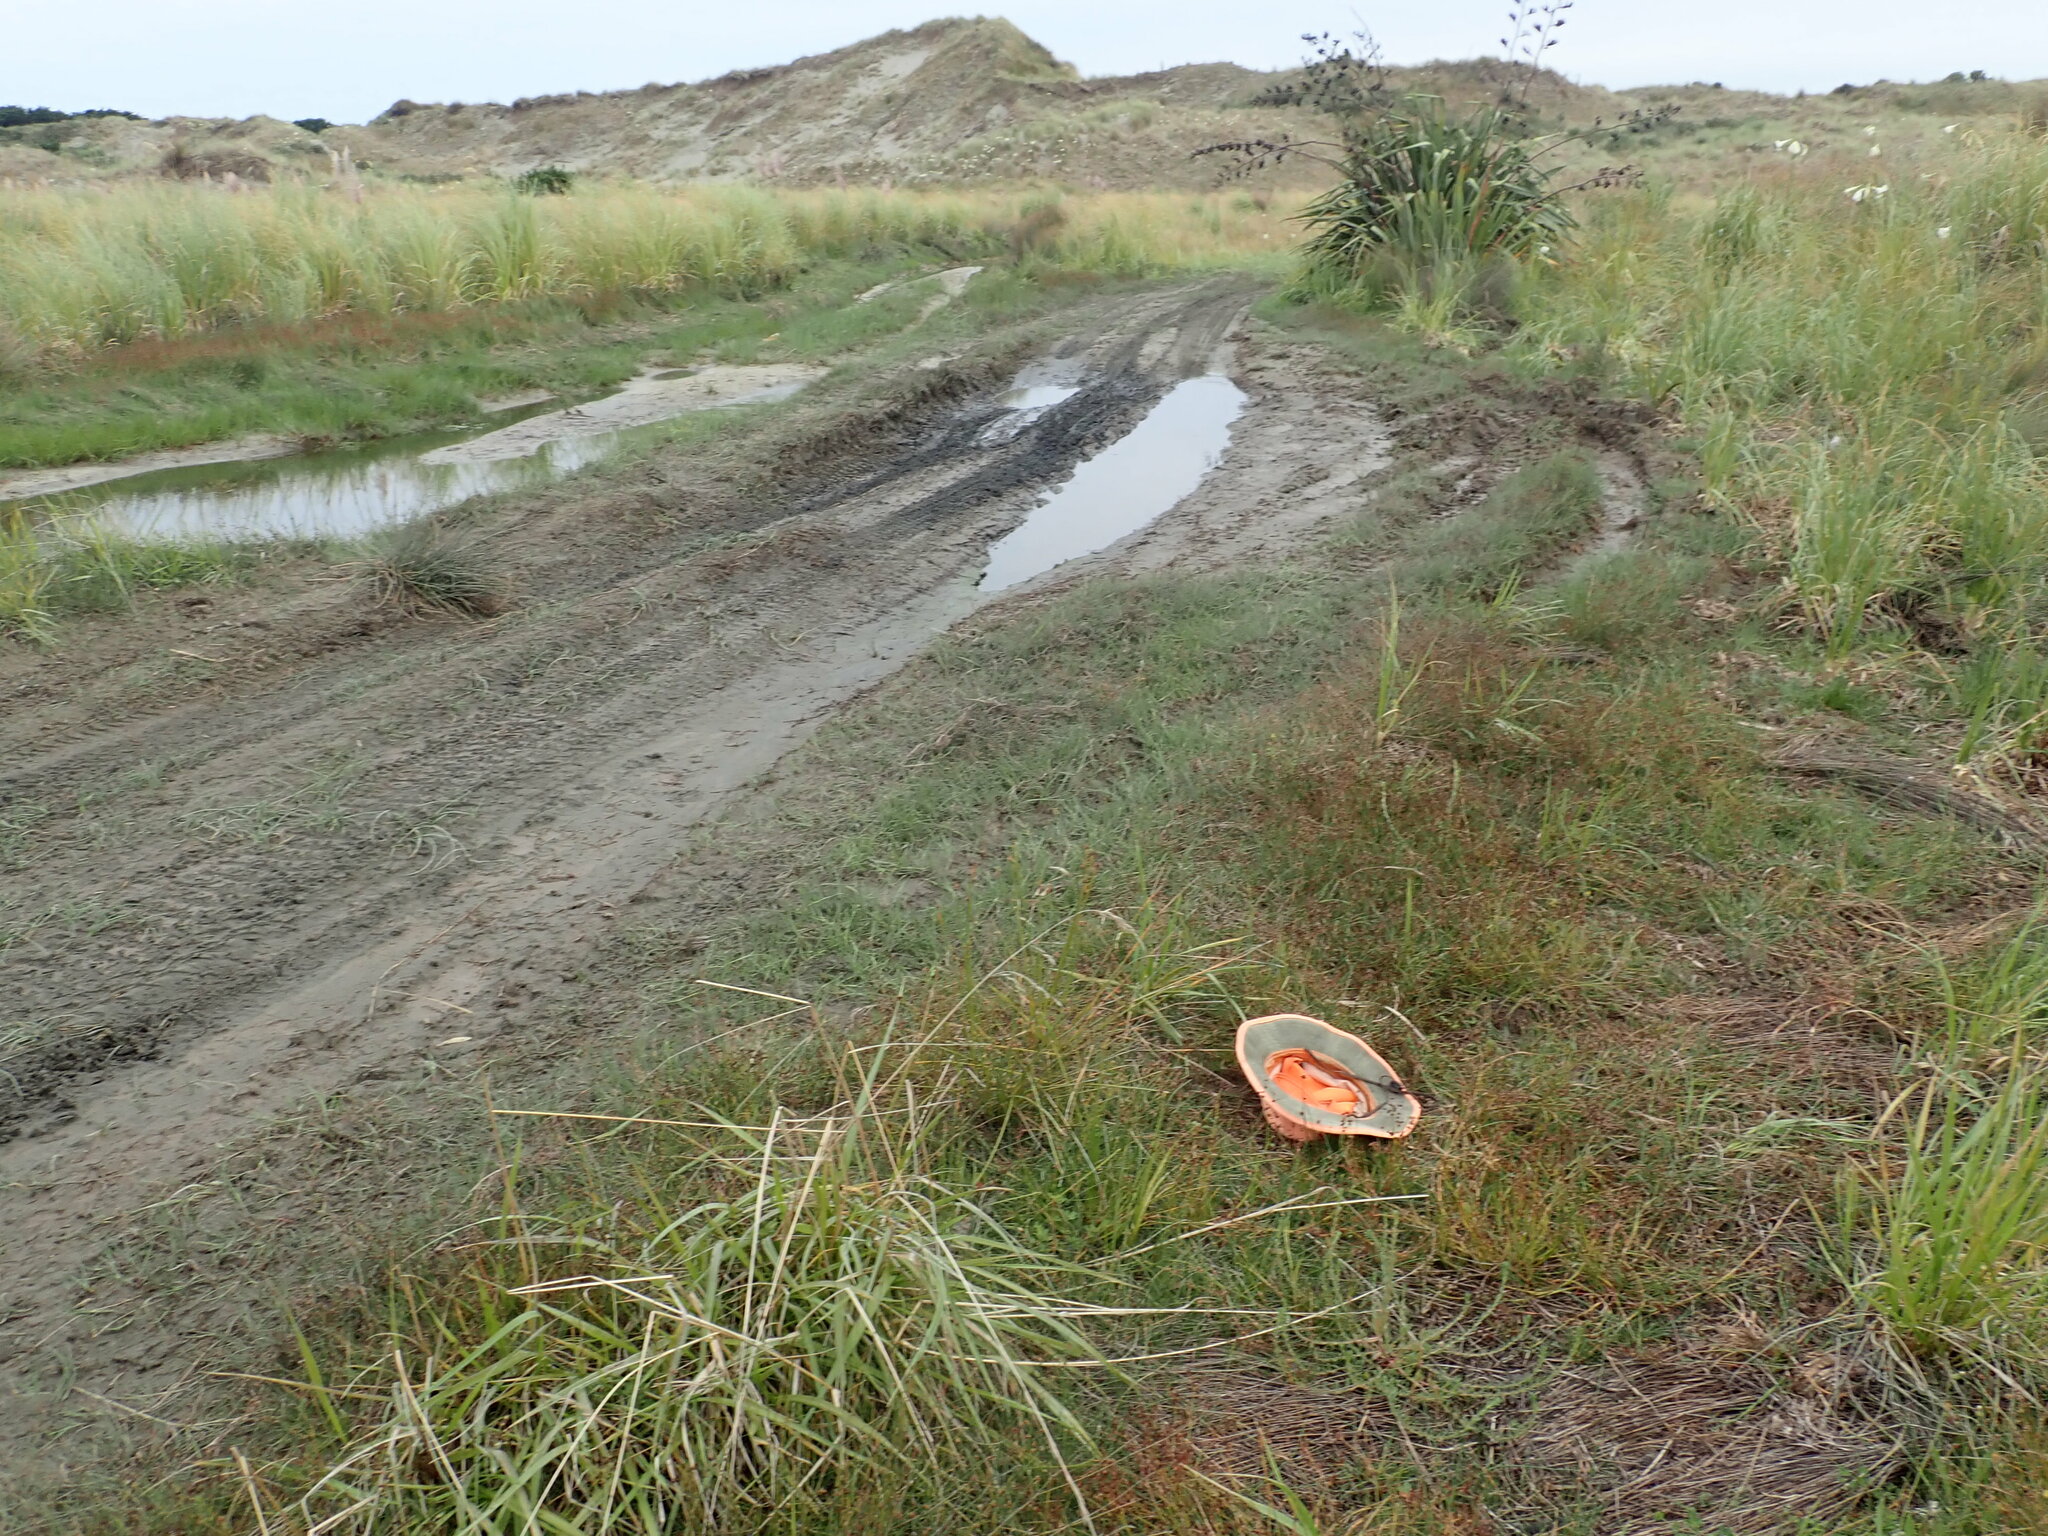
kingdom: Plantae
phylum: Tracheophyta
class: Liliopsida
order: Poales
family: Juncaceae
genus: Juncus
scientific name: Juncus caespiticius
